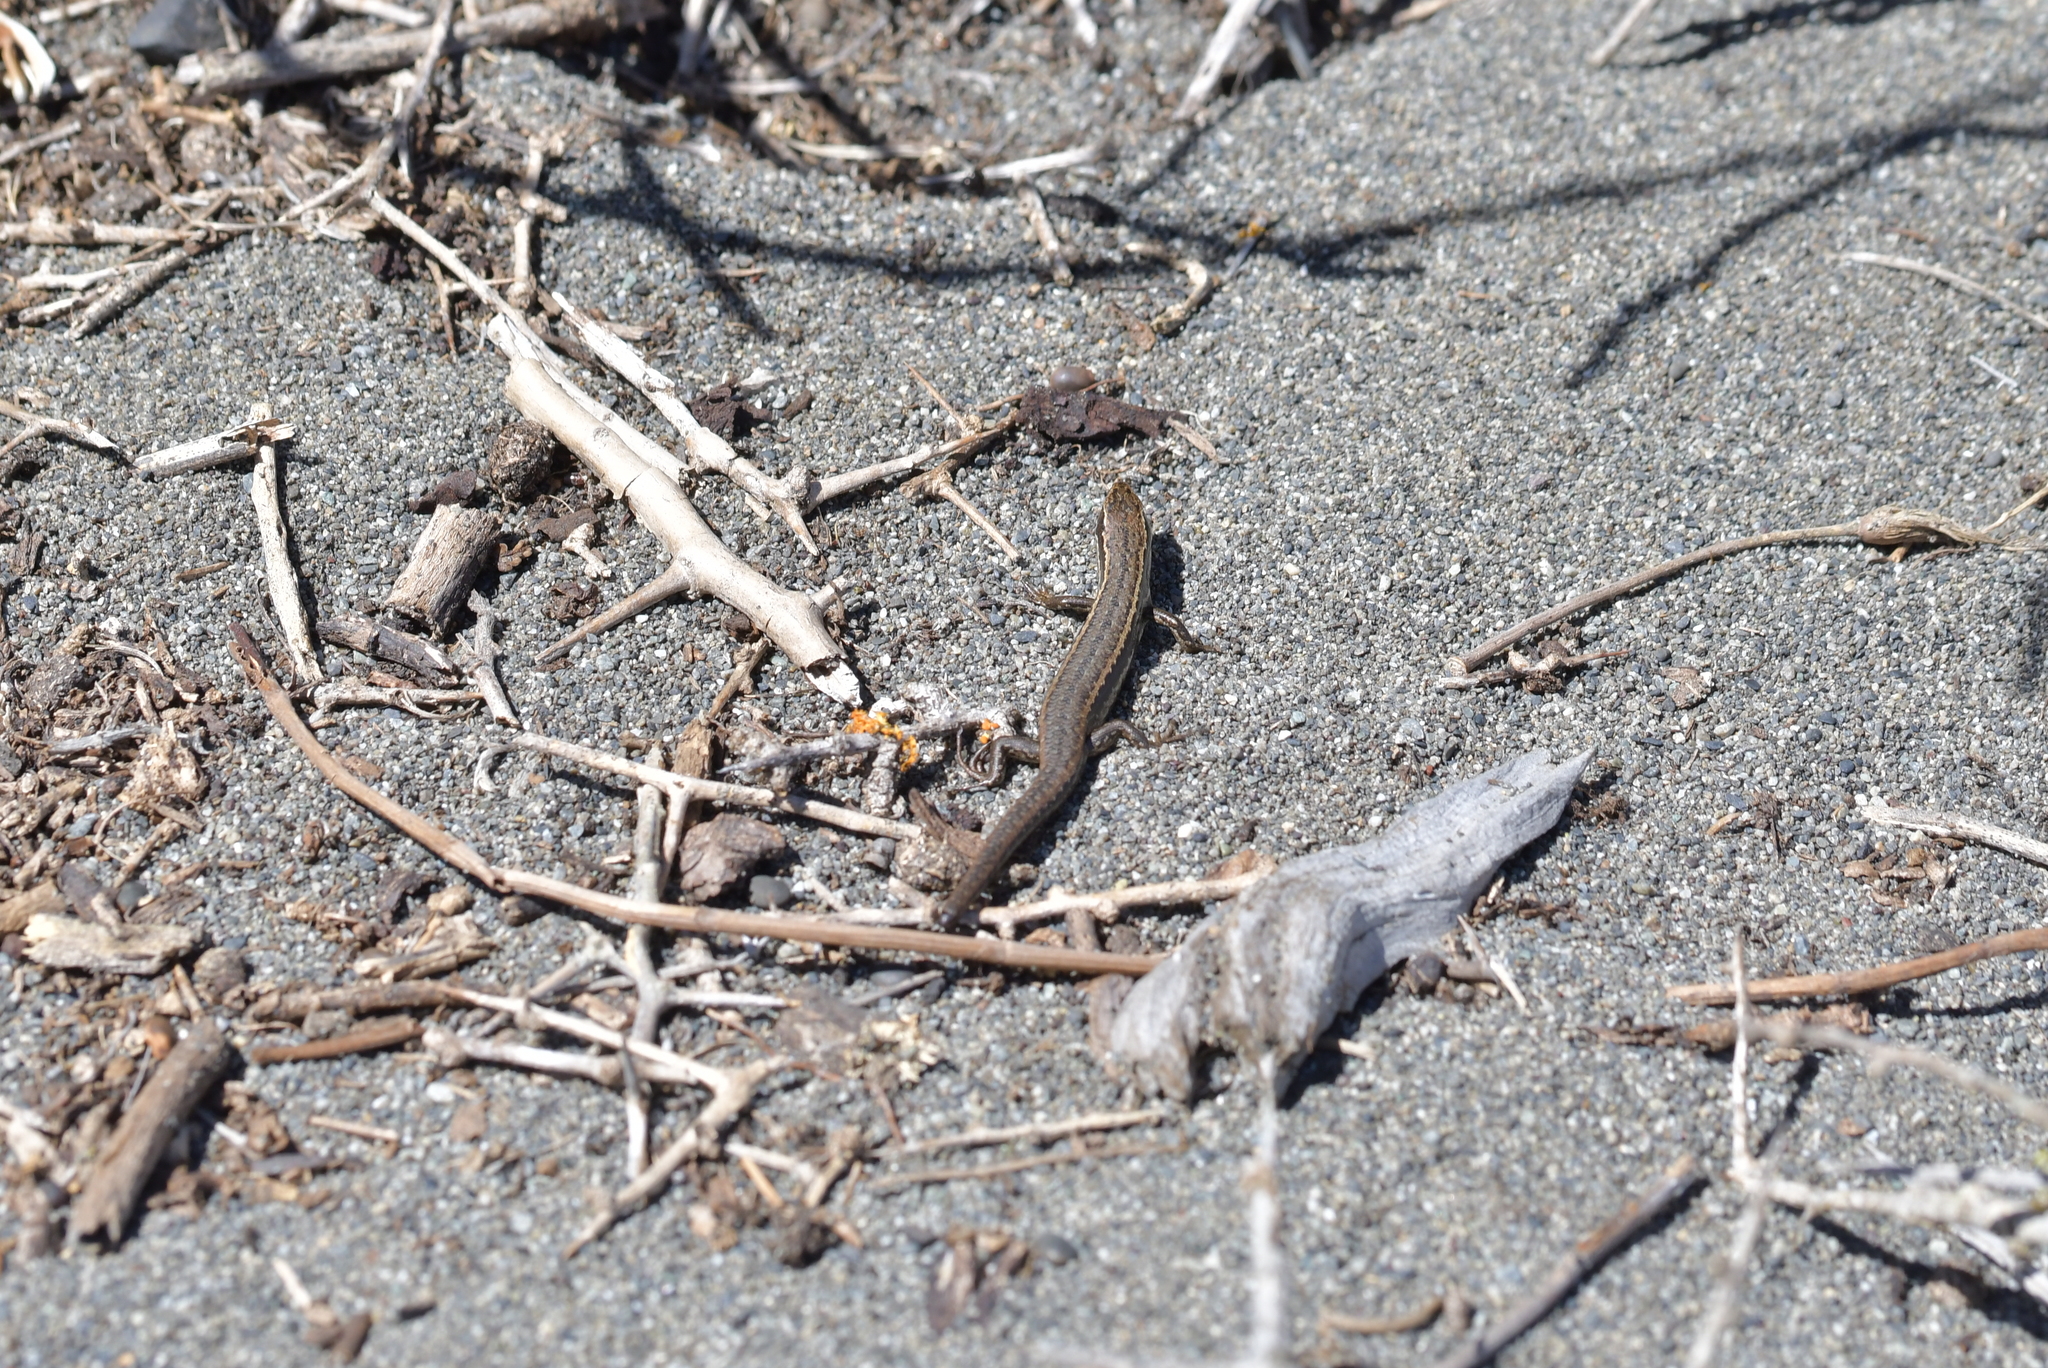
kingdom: Animalia
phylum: Chordata
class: Squamata
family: Scincidae
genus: Oligosoma
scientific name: Oligosoma polychroma
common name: Common new zealand skink
